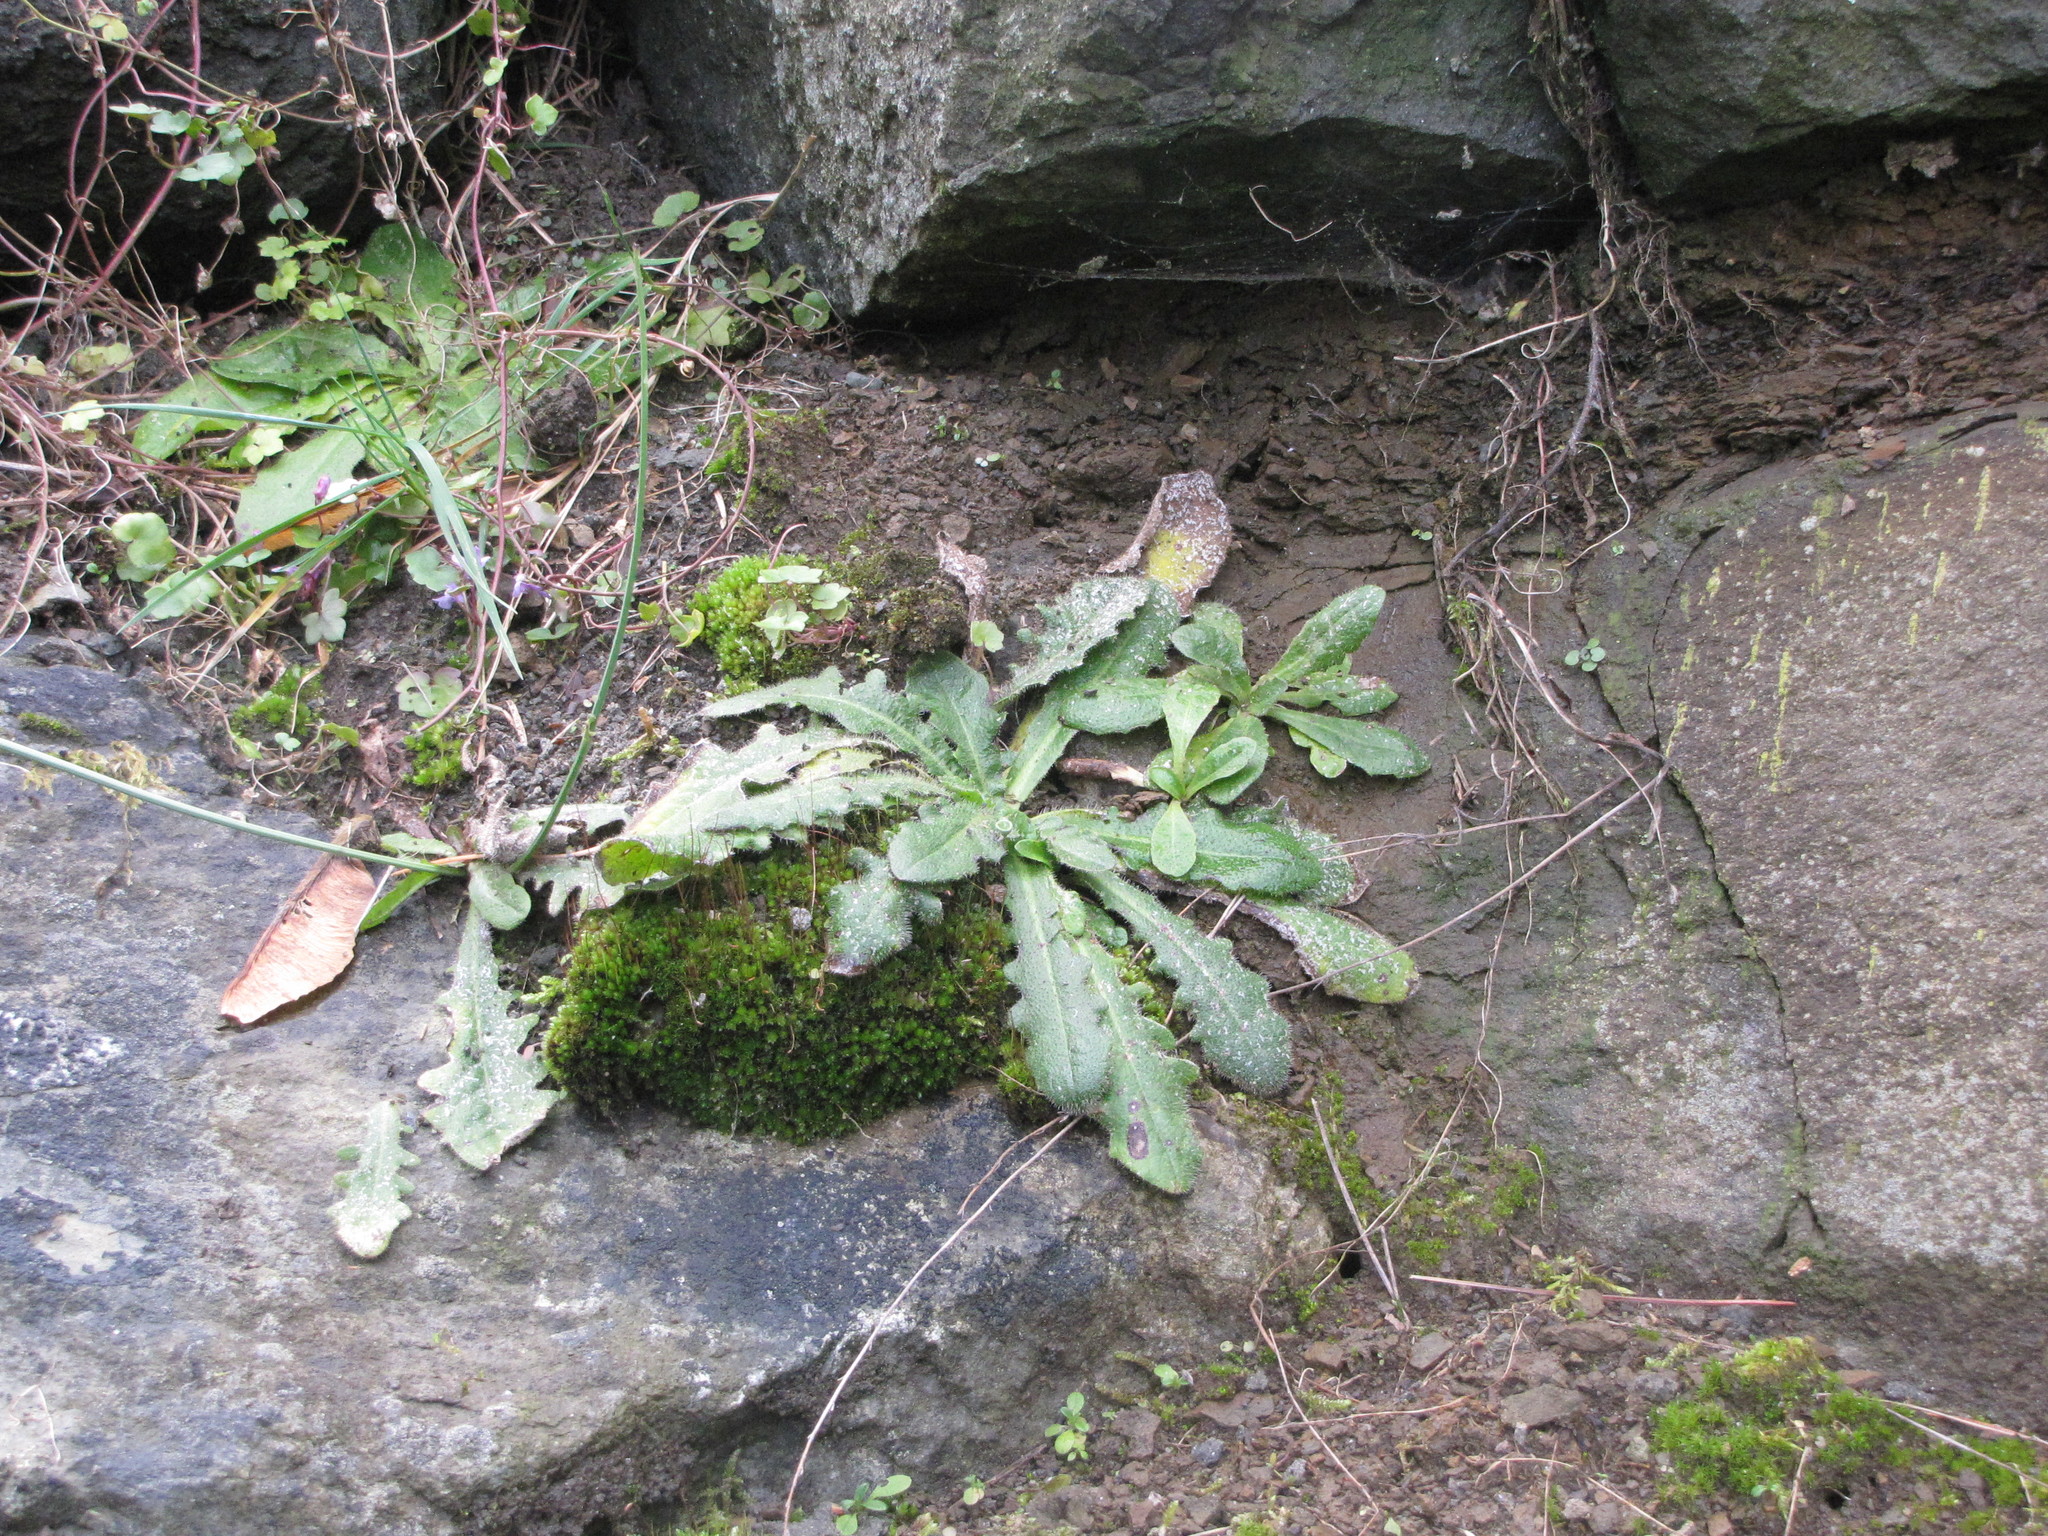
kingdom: Plantae
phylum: Tracheophyta
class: Magnoliopsida
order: Asterales
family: Asteraceae
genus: Taraxacum
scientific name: Taraxacum officinale
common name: Common dandelion
